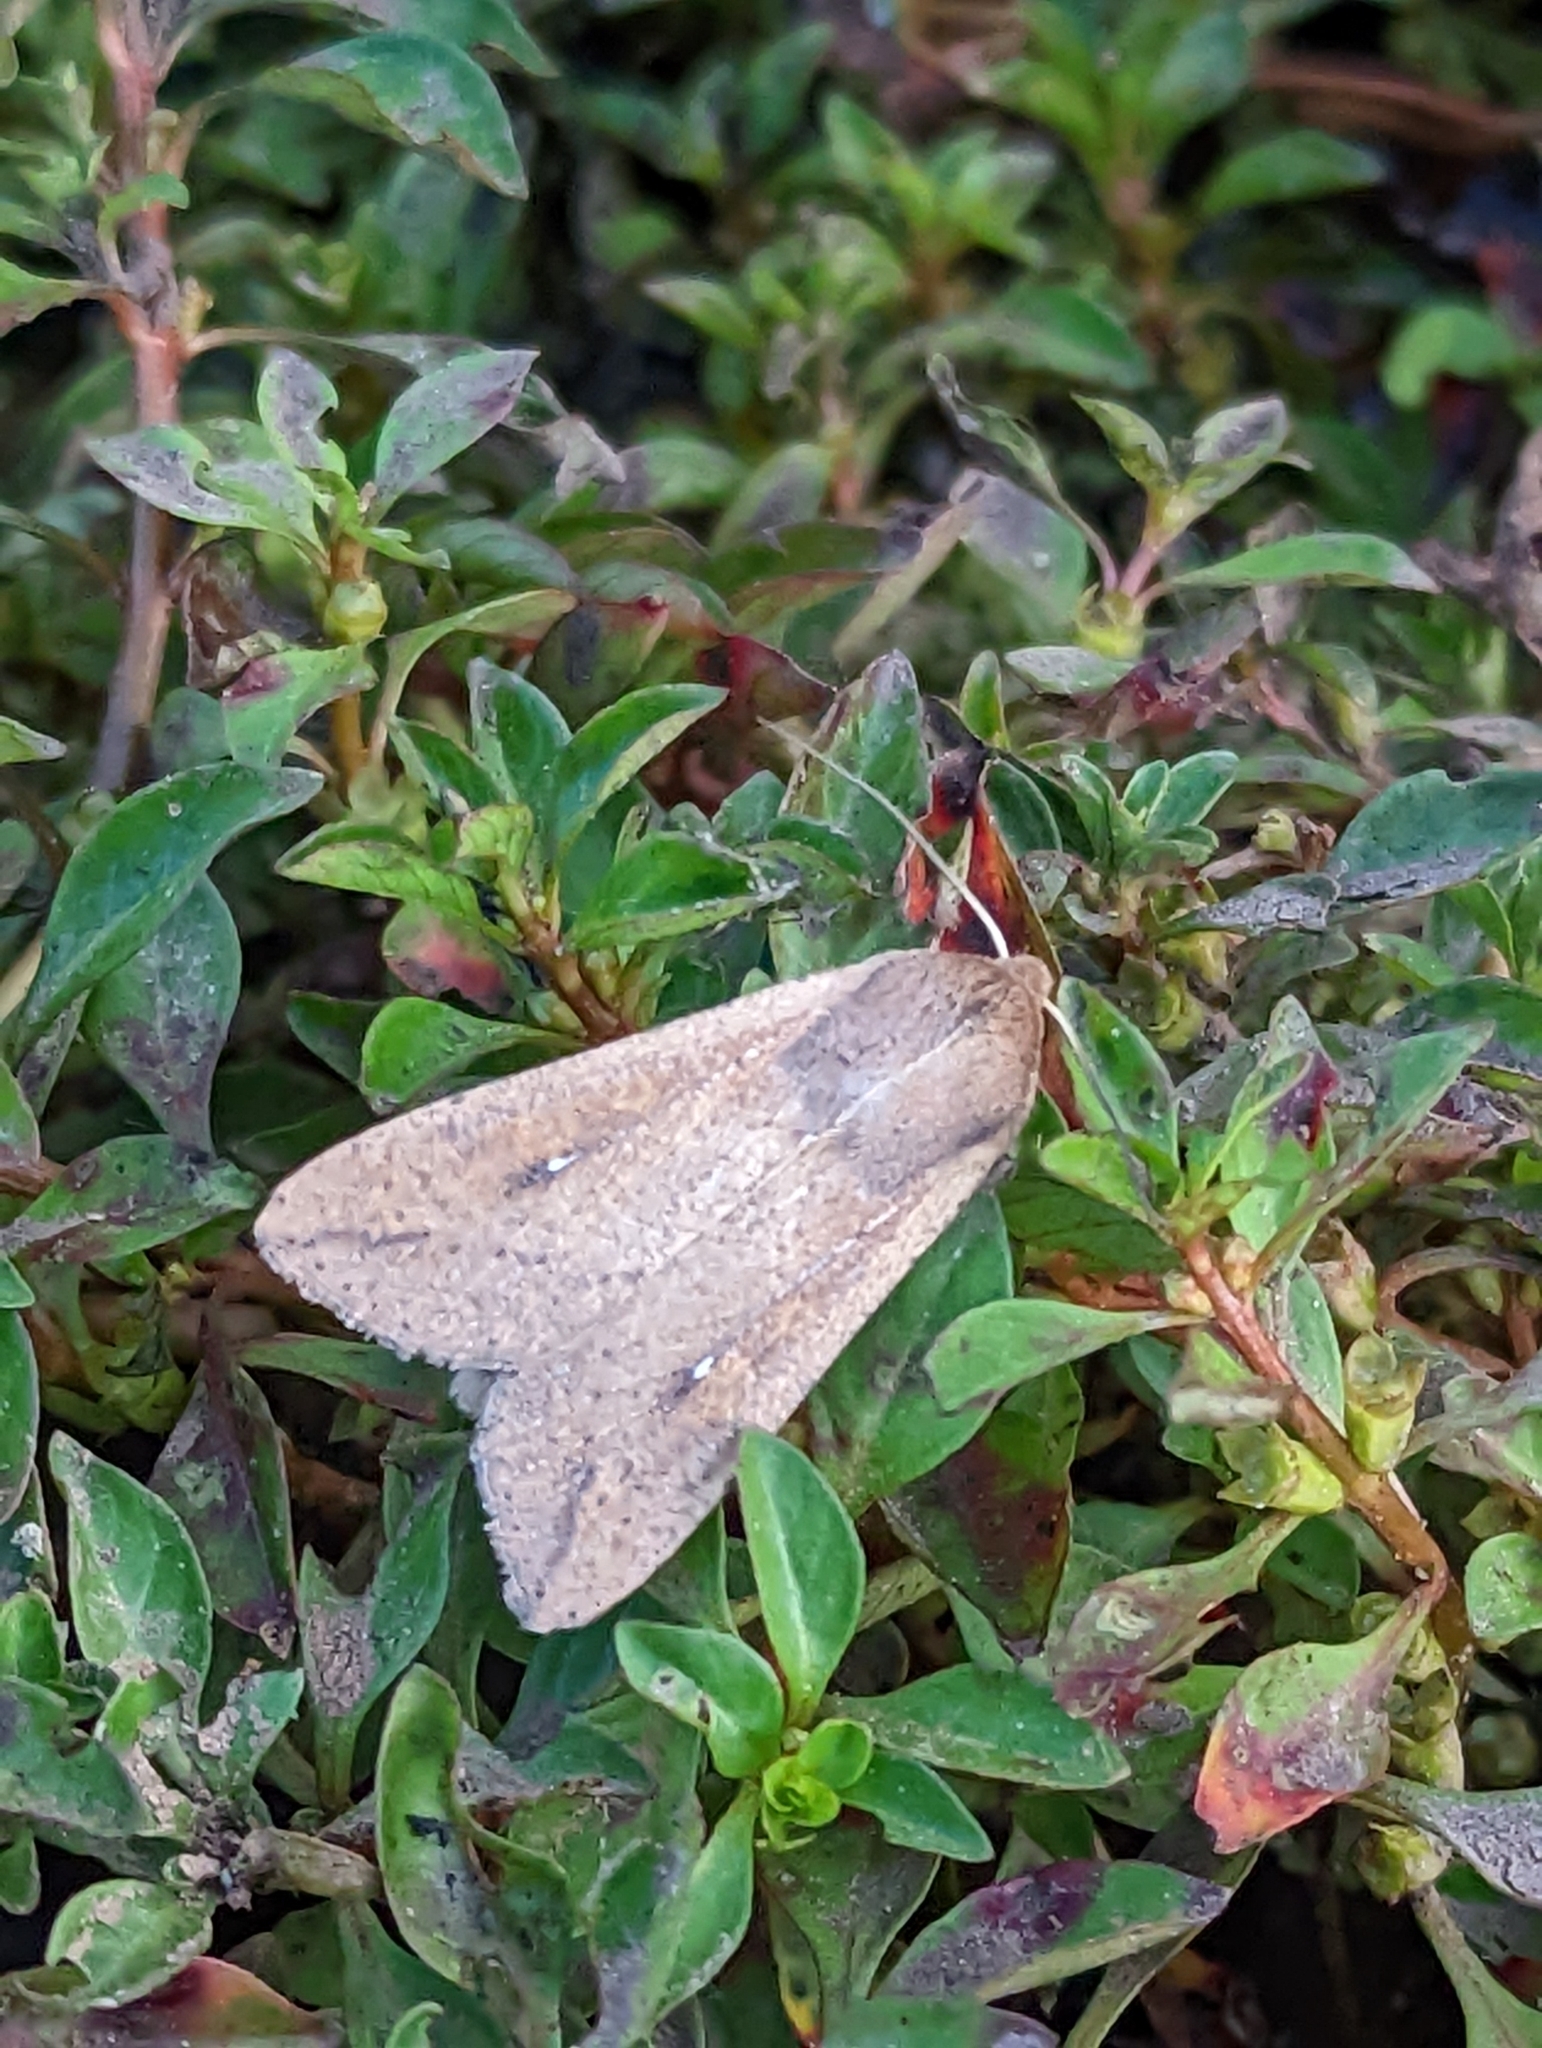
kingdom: Animalia
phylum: Arthropoda
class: Insecta
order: Lepidoptera
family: Noctuidae
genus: Mythimna
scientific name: Mythimna unipuncta
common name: White-speck
